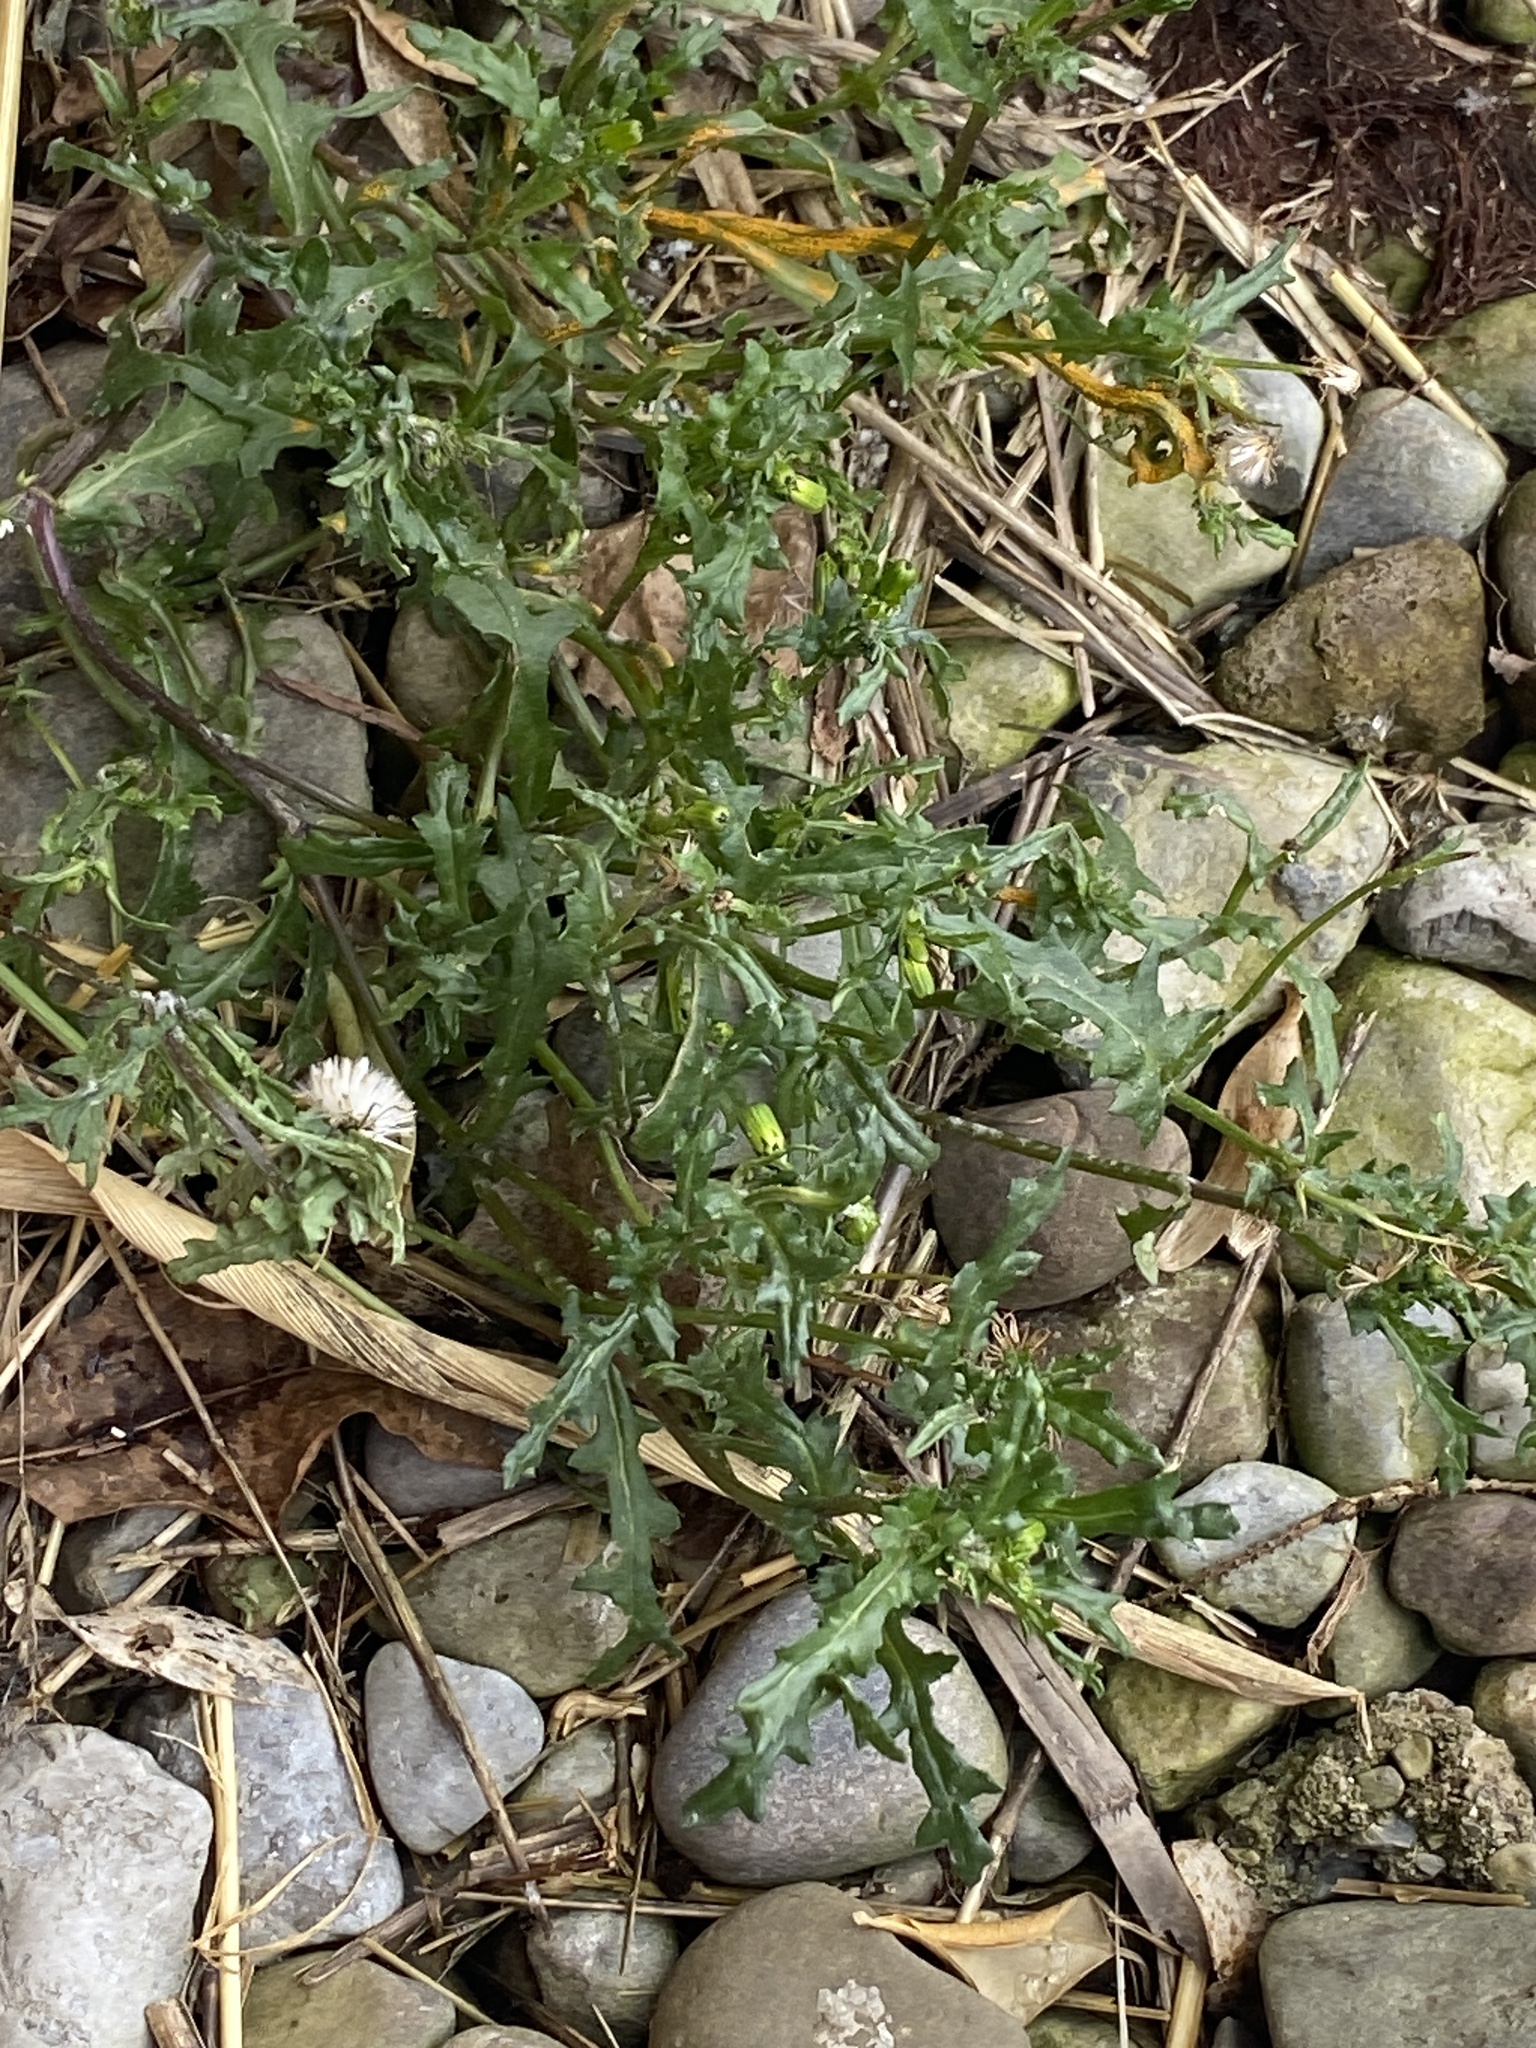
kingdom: Plantae
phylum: Tracheophyta
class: Magnoliopsida
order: Asterales
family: Asteraceae
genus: Senecio
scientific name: Senecio vulgaris
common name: Old-man-in-the-spring
